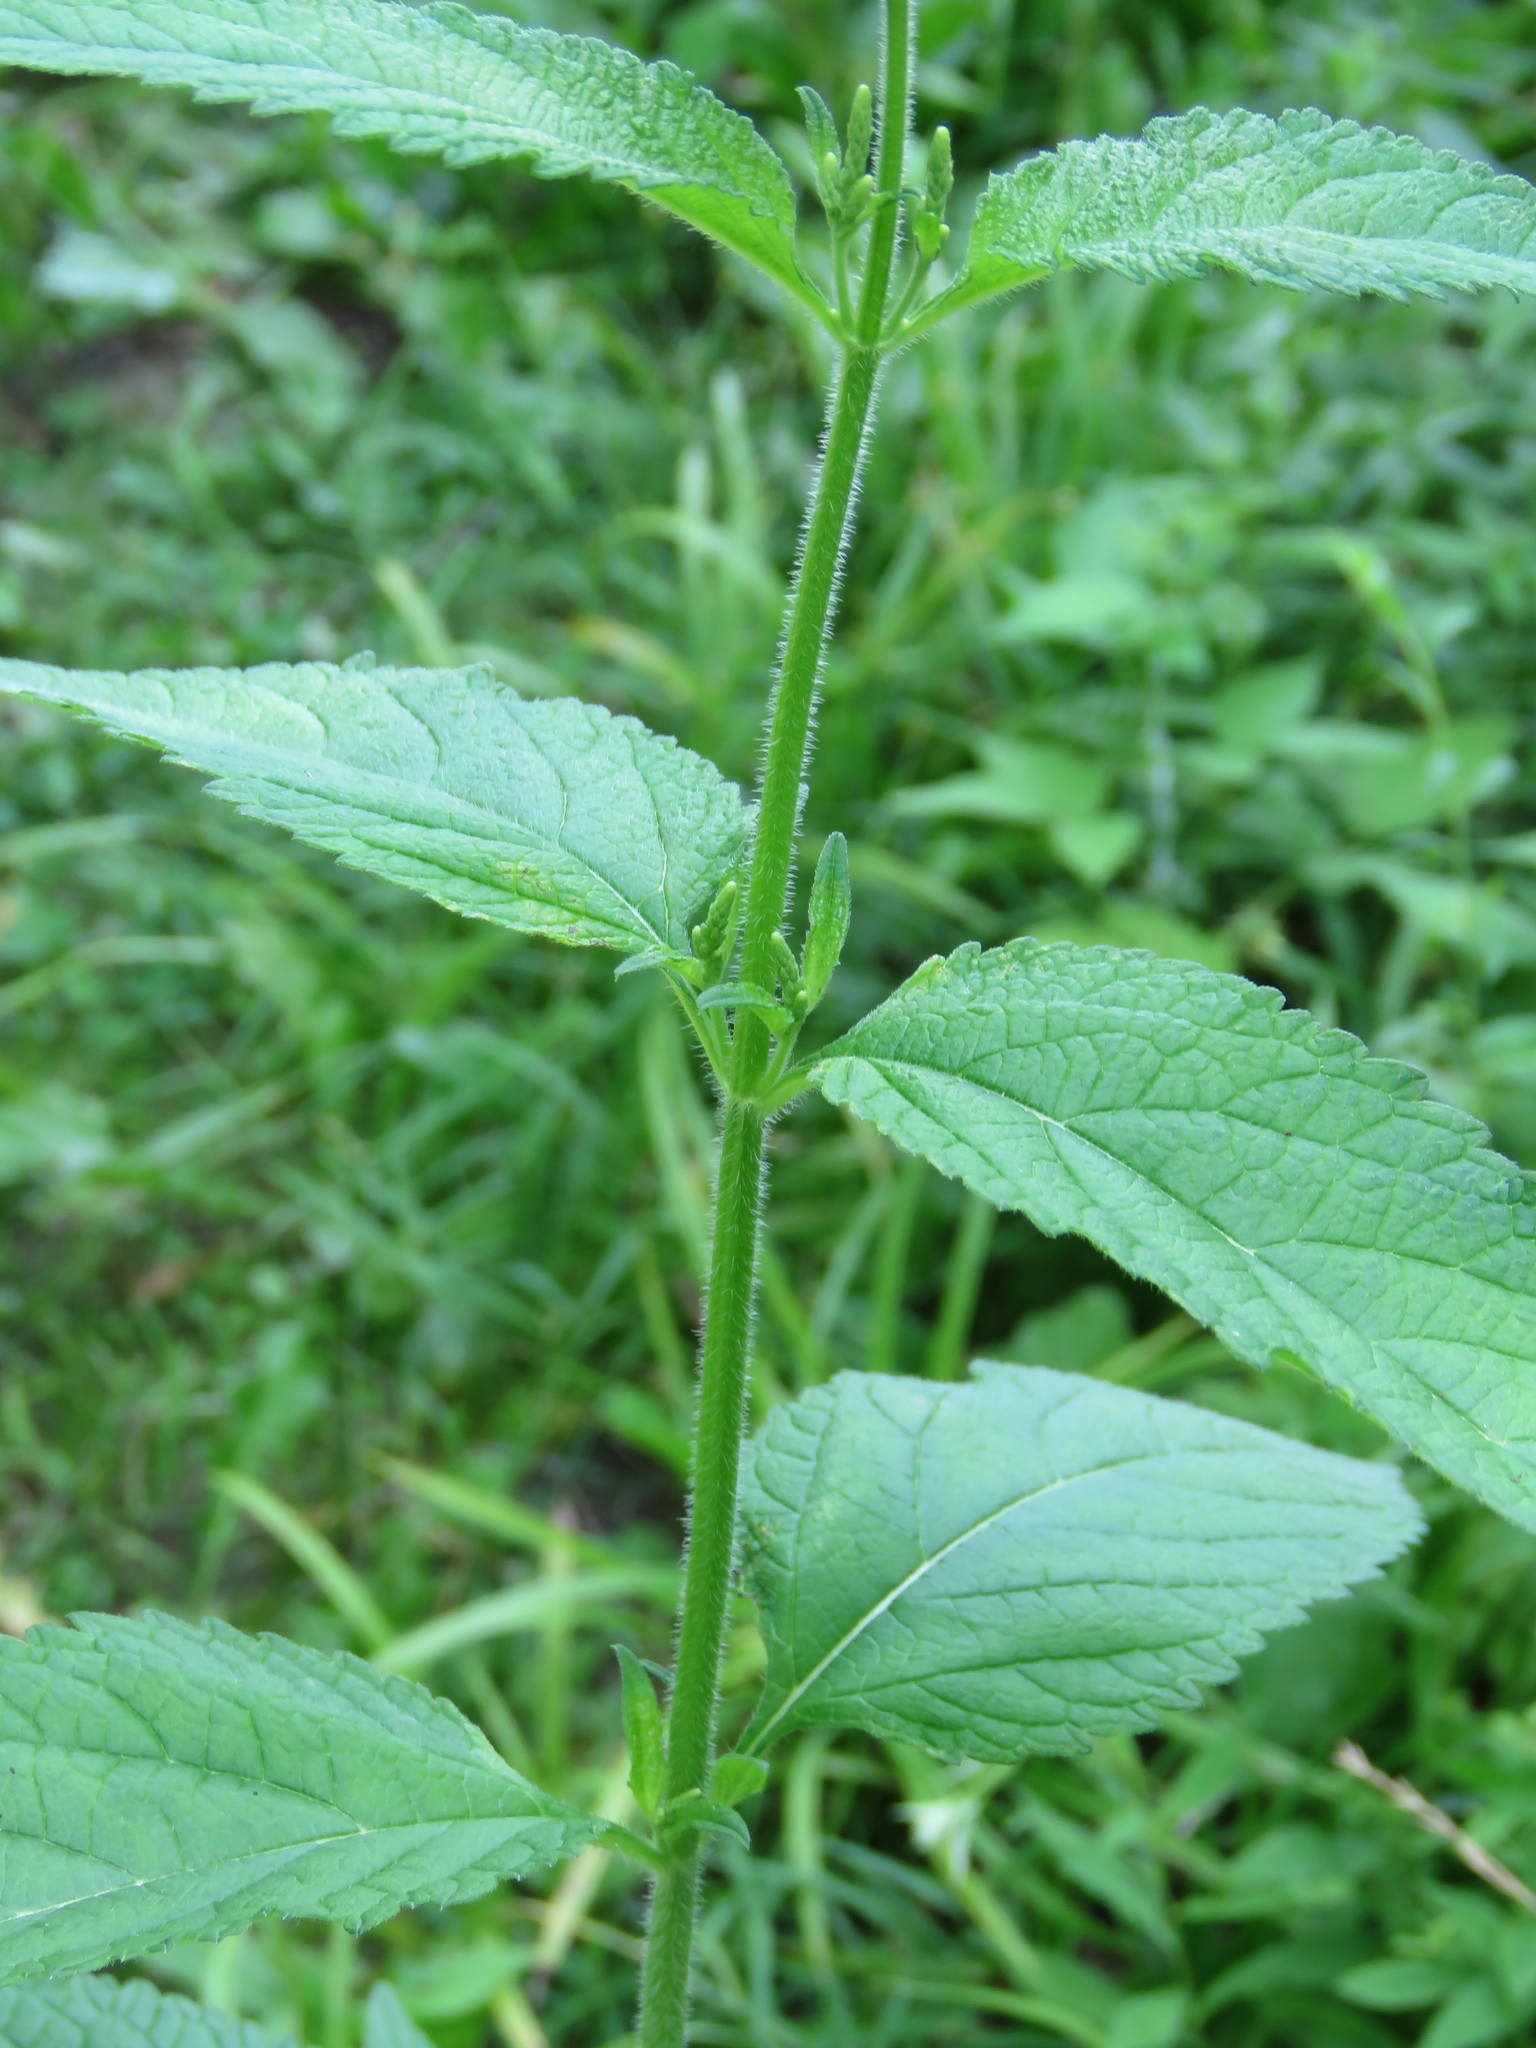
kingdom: Plantae
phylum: Tracheophyta
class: Magnoliopsida
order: Lamiales
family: Verbenaceae
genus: Verbena
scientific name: Verbena urticifolia
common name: Nettle-leaved vervain
